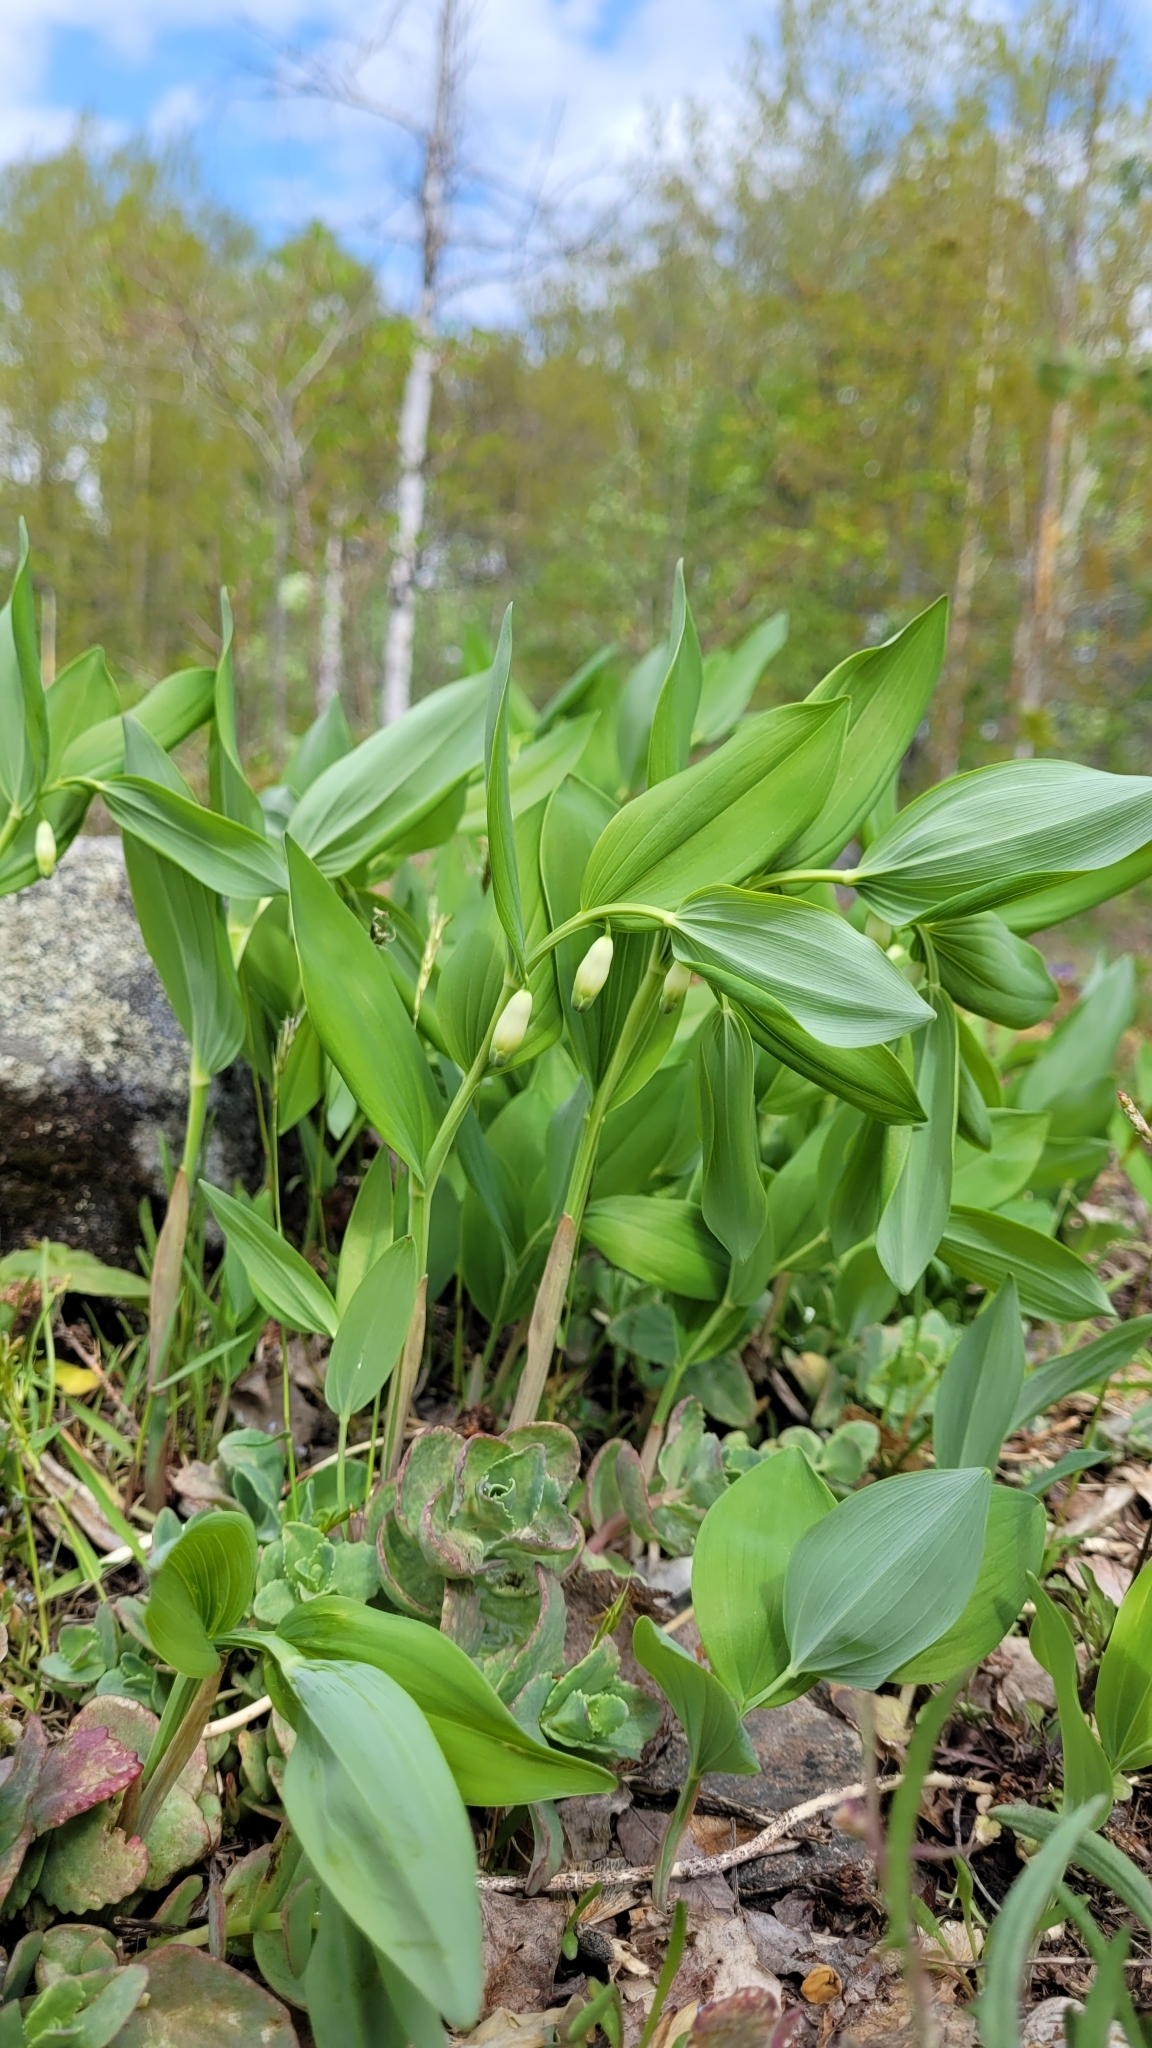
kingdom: Plantae
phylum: Tracheophyta
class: Liliopsida
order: Asparagales
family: Asparagaceae
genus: Polygonatum
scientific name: Polygonatum odoratum
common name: Angular solomon's-seal
